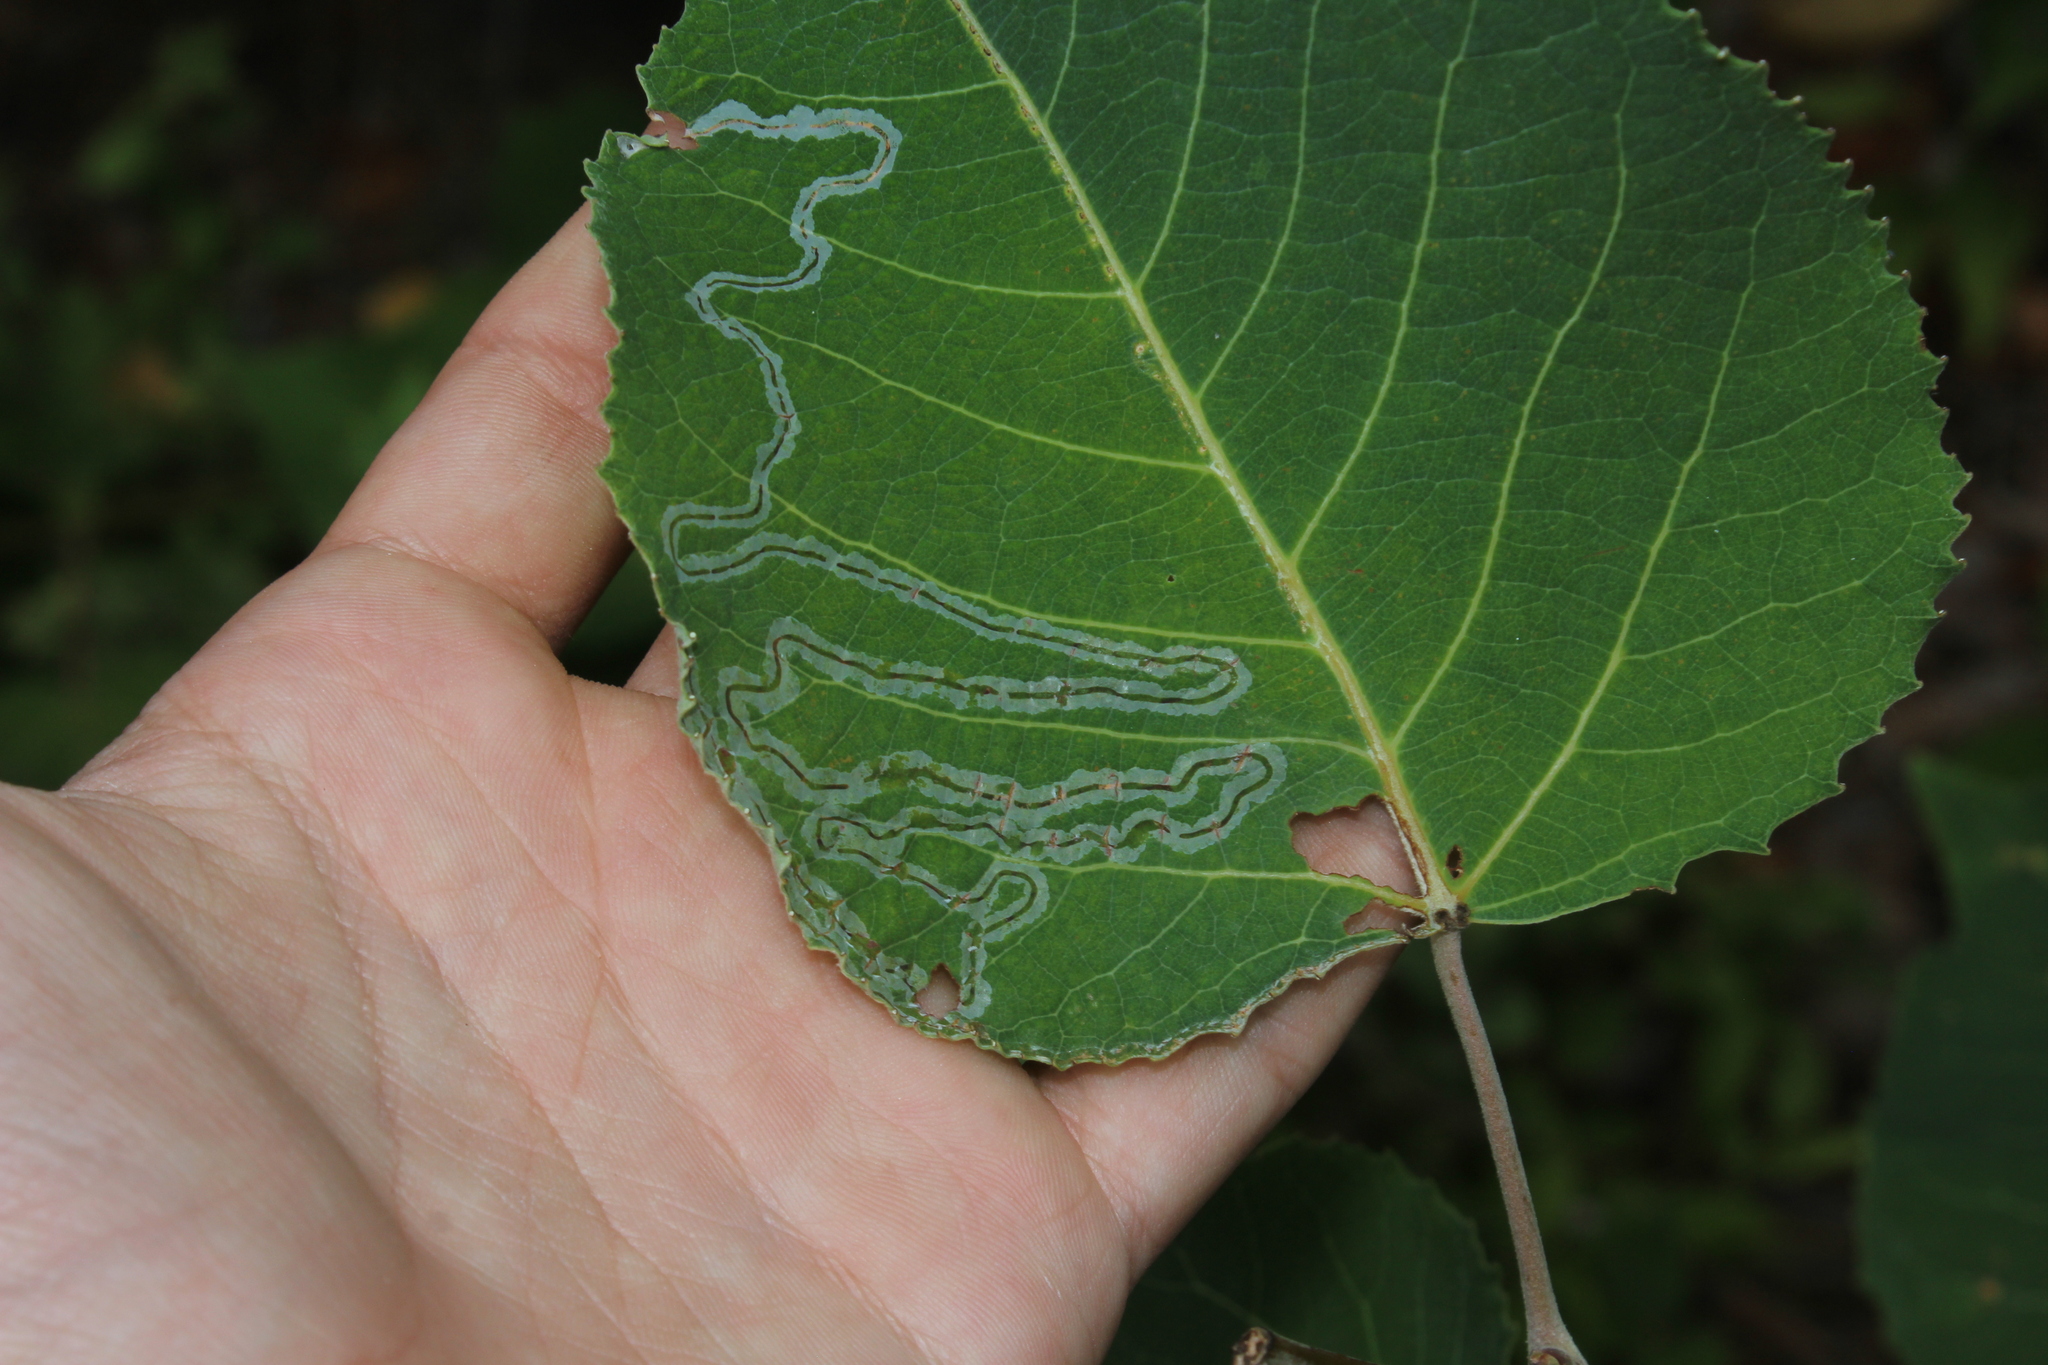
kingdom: Animalia
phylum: Arthropoda
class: Insecta
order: Lepidoptera
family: Gracillariidae
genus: Phyllocnistis
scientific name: Phyllocnistis populiella
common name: Aspen serpentine leafminer moth
